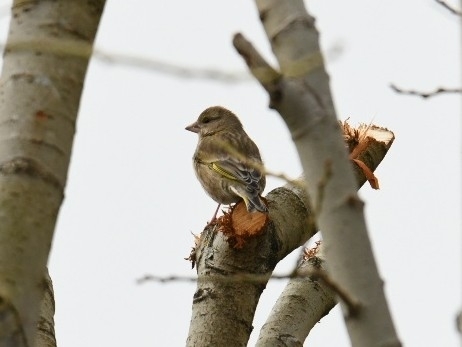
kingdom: Plantae
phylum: Tracheophyta
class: Liliopsida
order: Poales
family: Poaceae
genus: Chloris
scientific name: Chloris chloris
